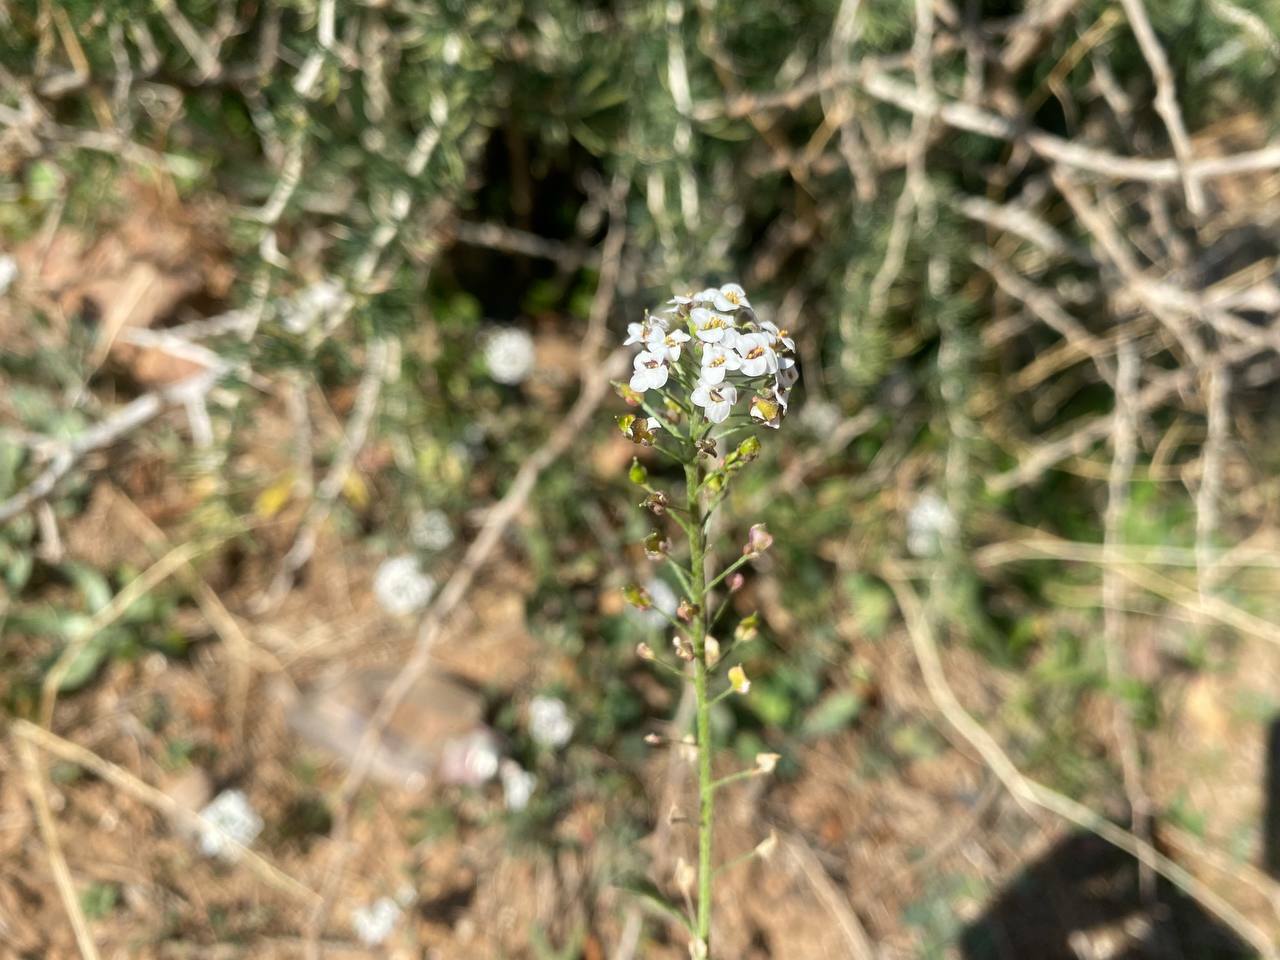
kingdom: Plantae
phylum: Tracheophyta
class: Magnoliopsida
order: Brassicales
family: Brassicaceae
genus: Lobularia
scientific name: Lobularia maritima
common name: Sweet alison
